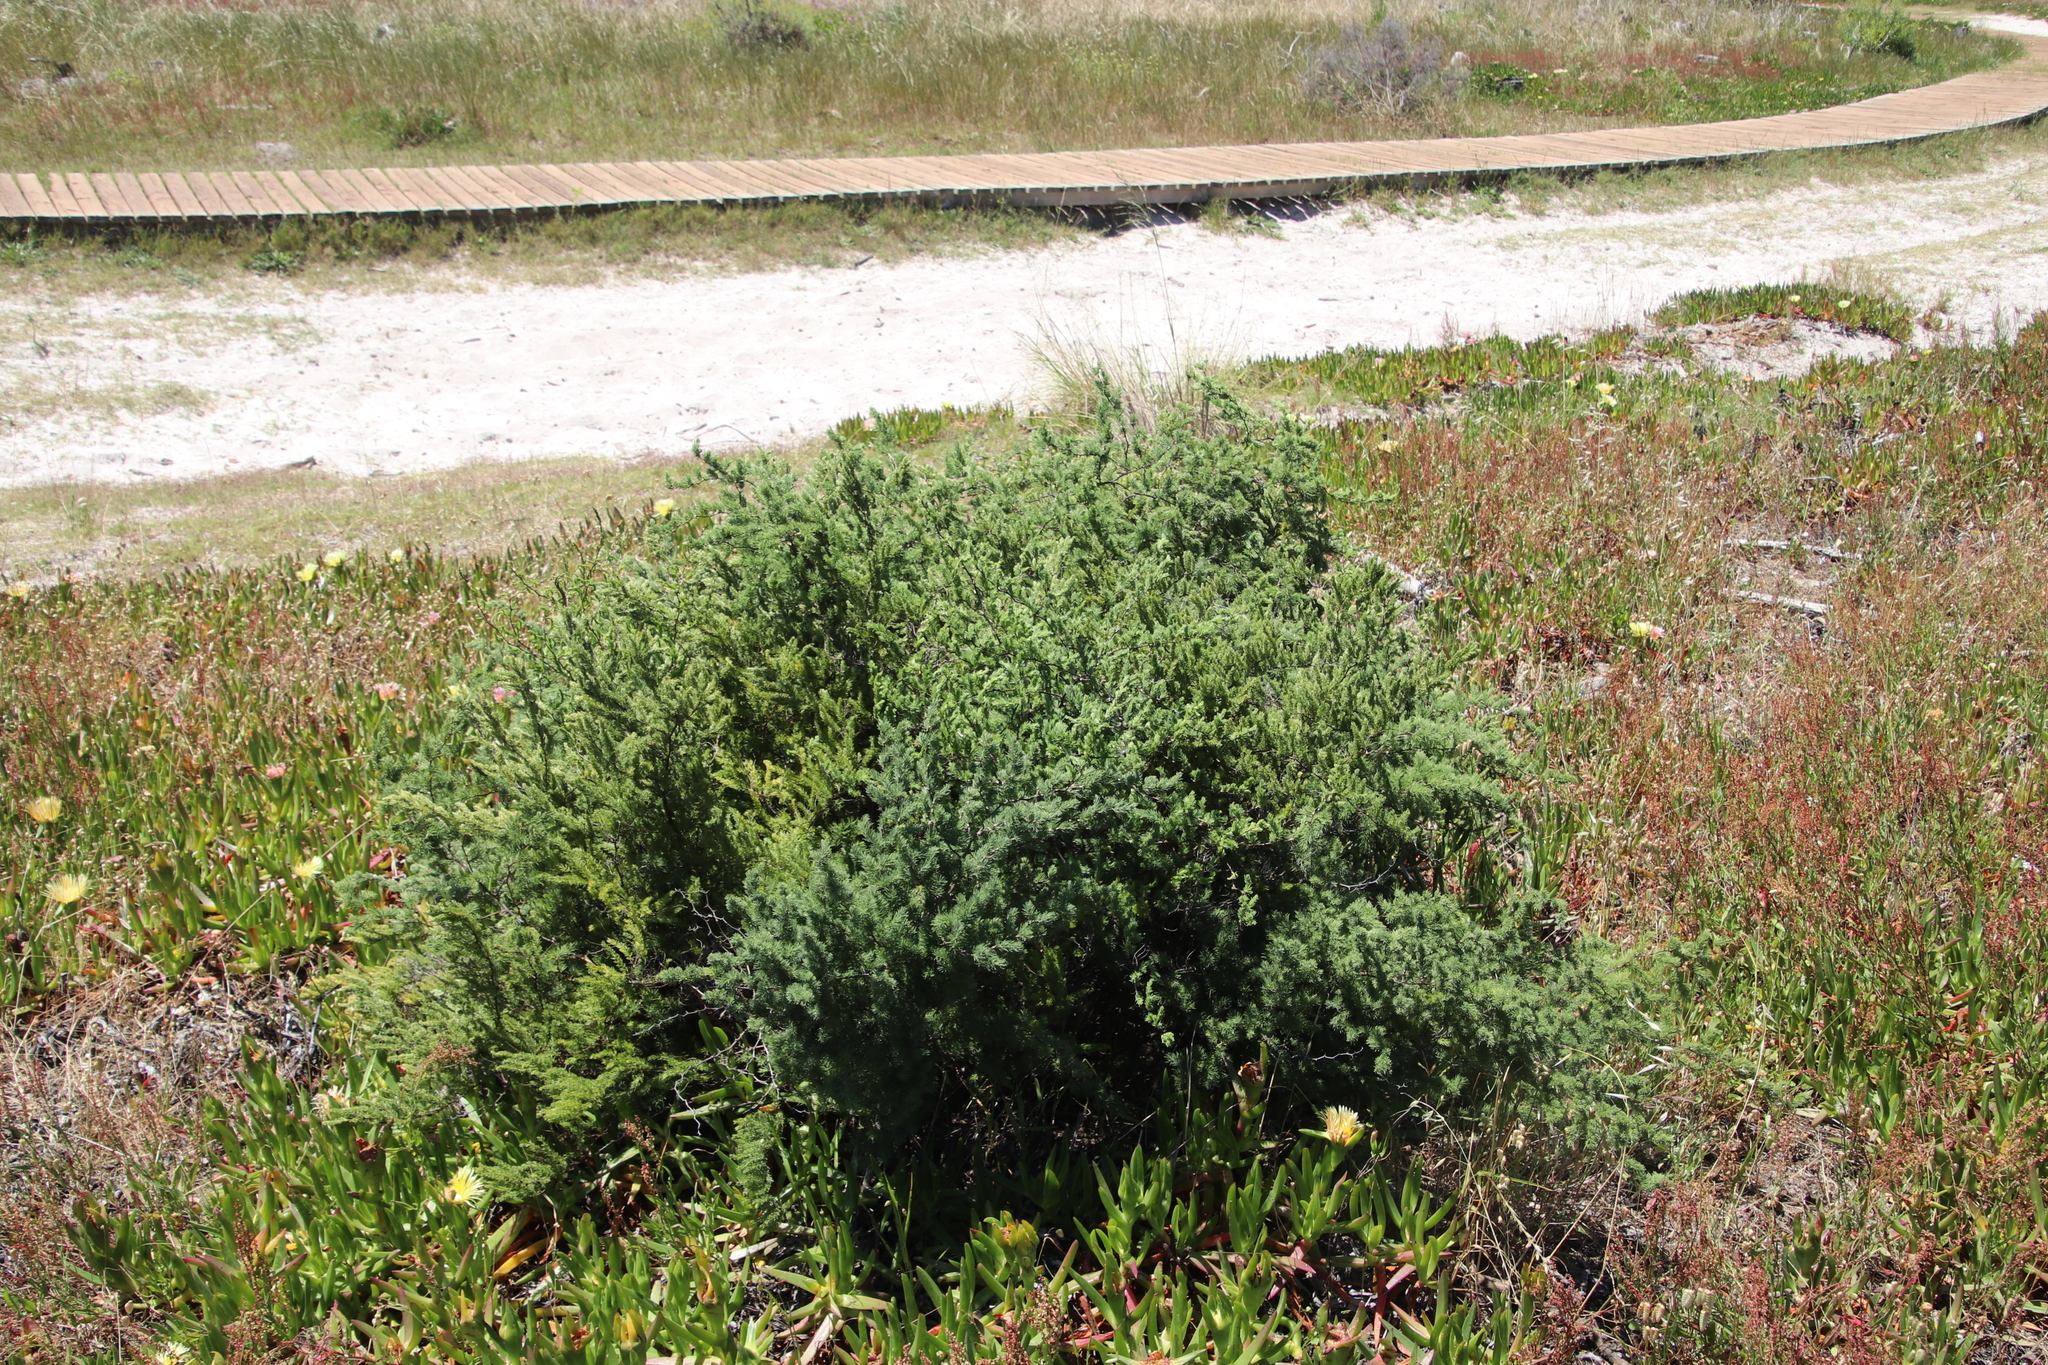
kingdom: Plantae
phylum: Tracheophyta
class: Liliopsida
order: Asparagales
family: Asparagaceae
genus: Asparagus
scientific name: Asparagus rubicundus
